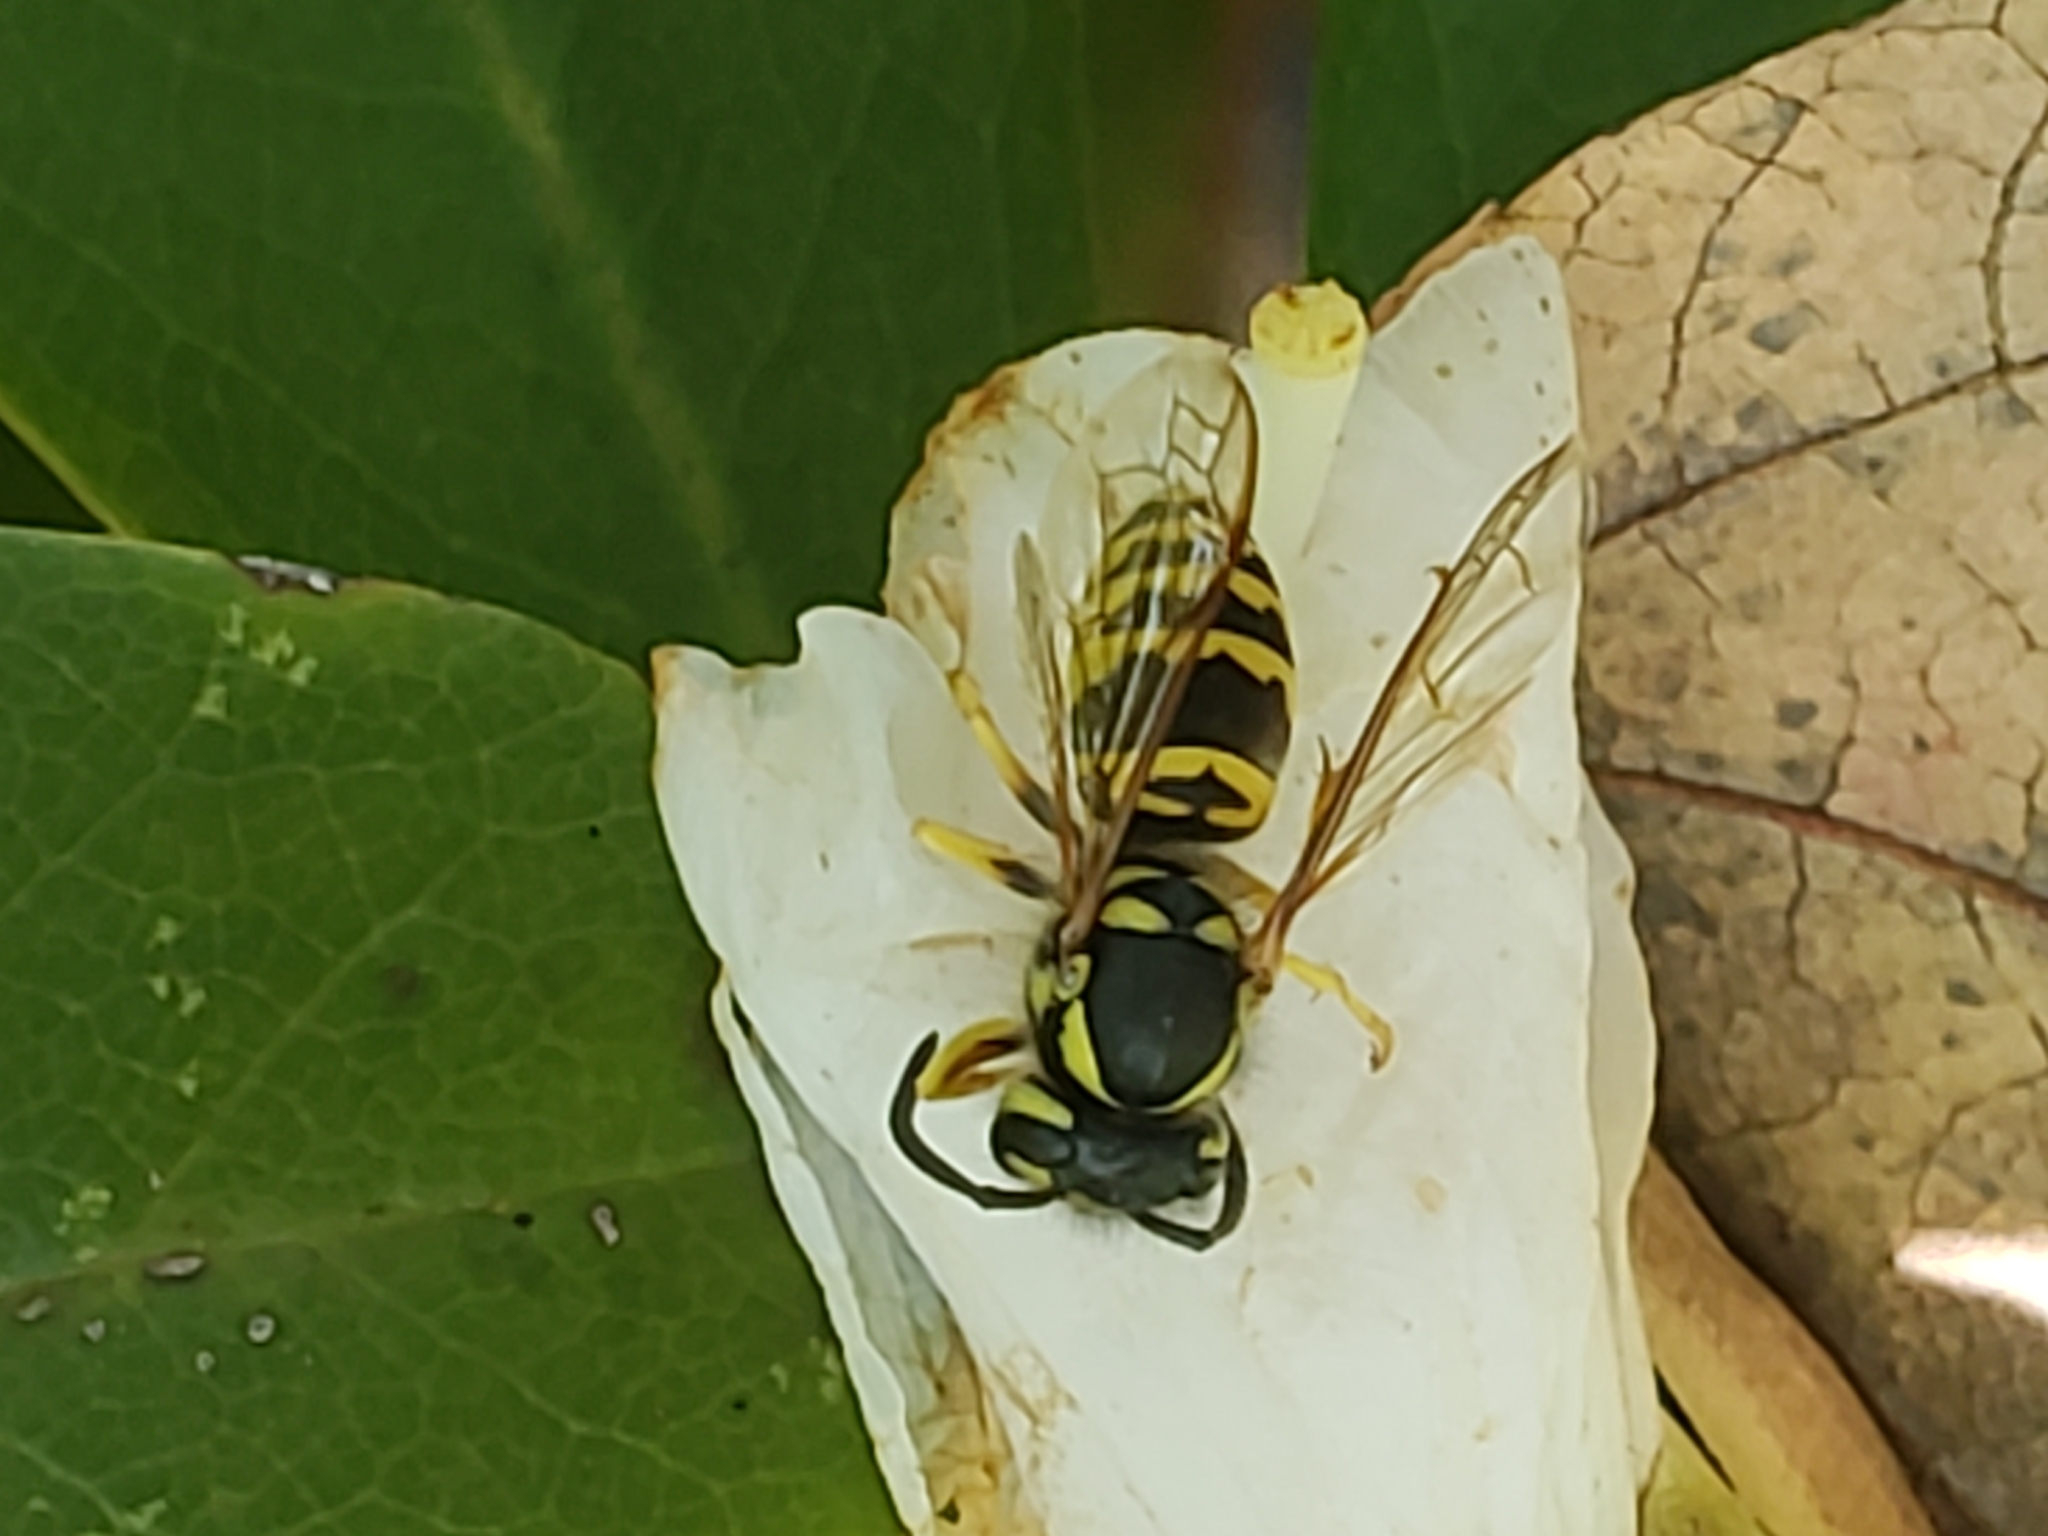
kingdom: Animalia
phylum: Arthropoda
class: Insecta
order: Hymenoptera
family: Vespidae
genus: Vespula
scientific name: Vespula maculifrons
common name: Eastern yellowjacket
